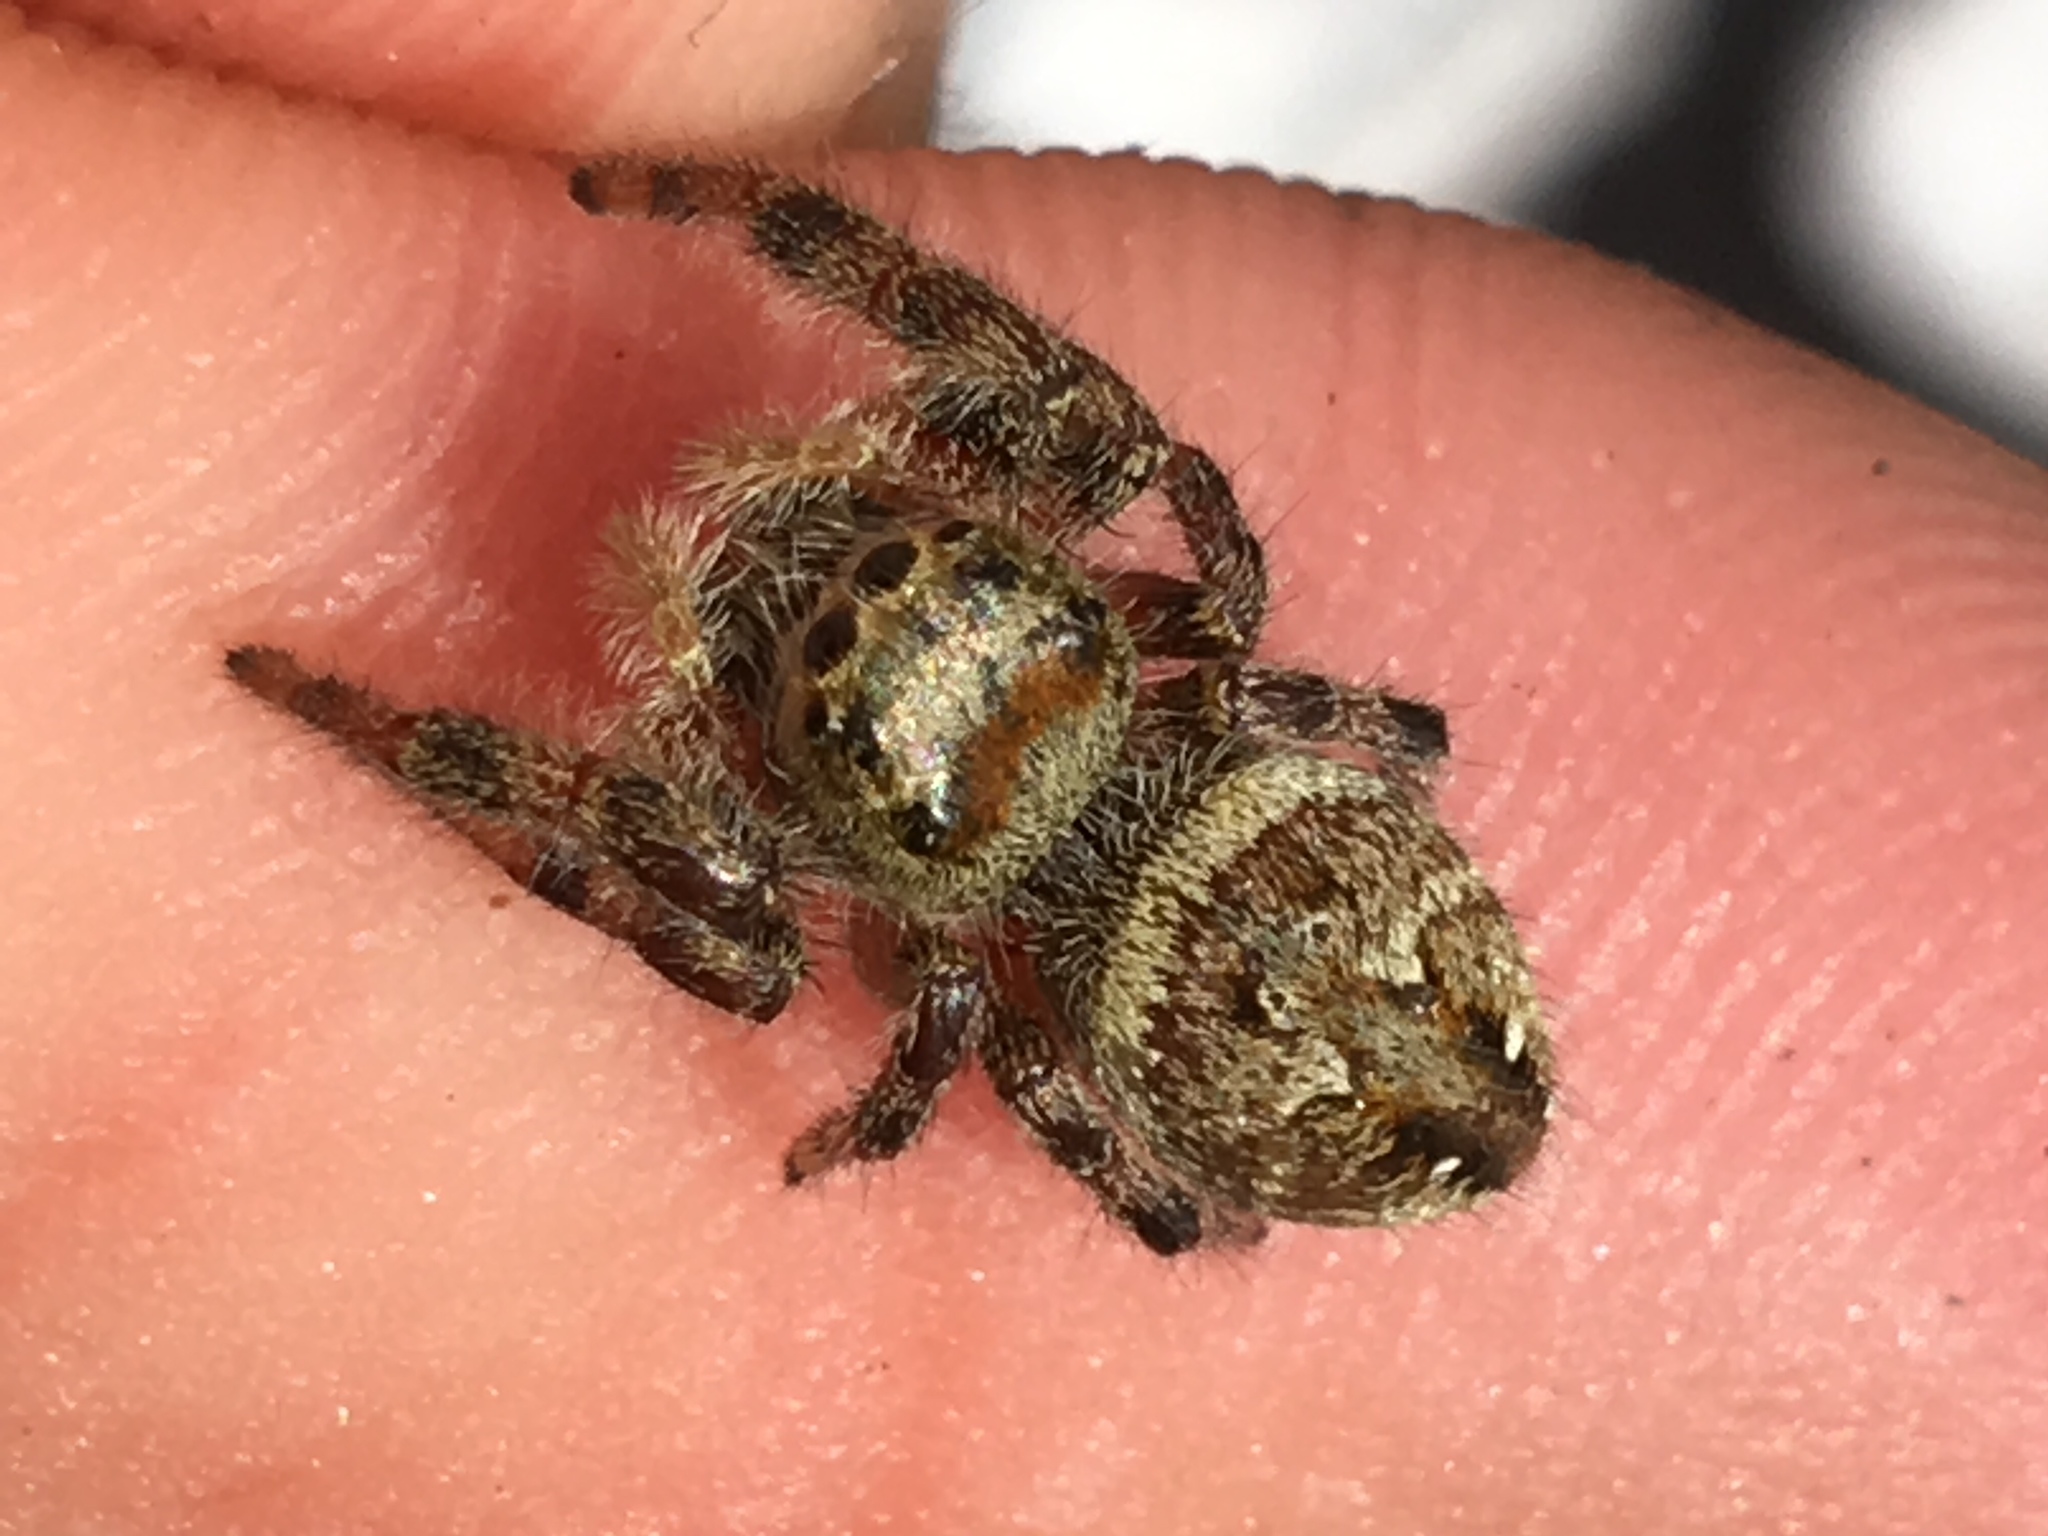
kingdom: Animalia
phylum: Arthropoda
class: Arachnida
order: Araneae
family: Salticidae
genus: Phidippus
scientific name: Phidippus clarus
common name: Brilliant jumping spider
